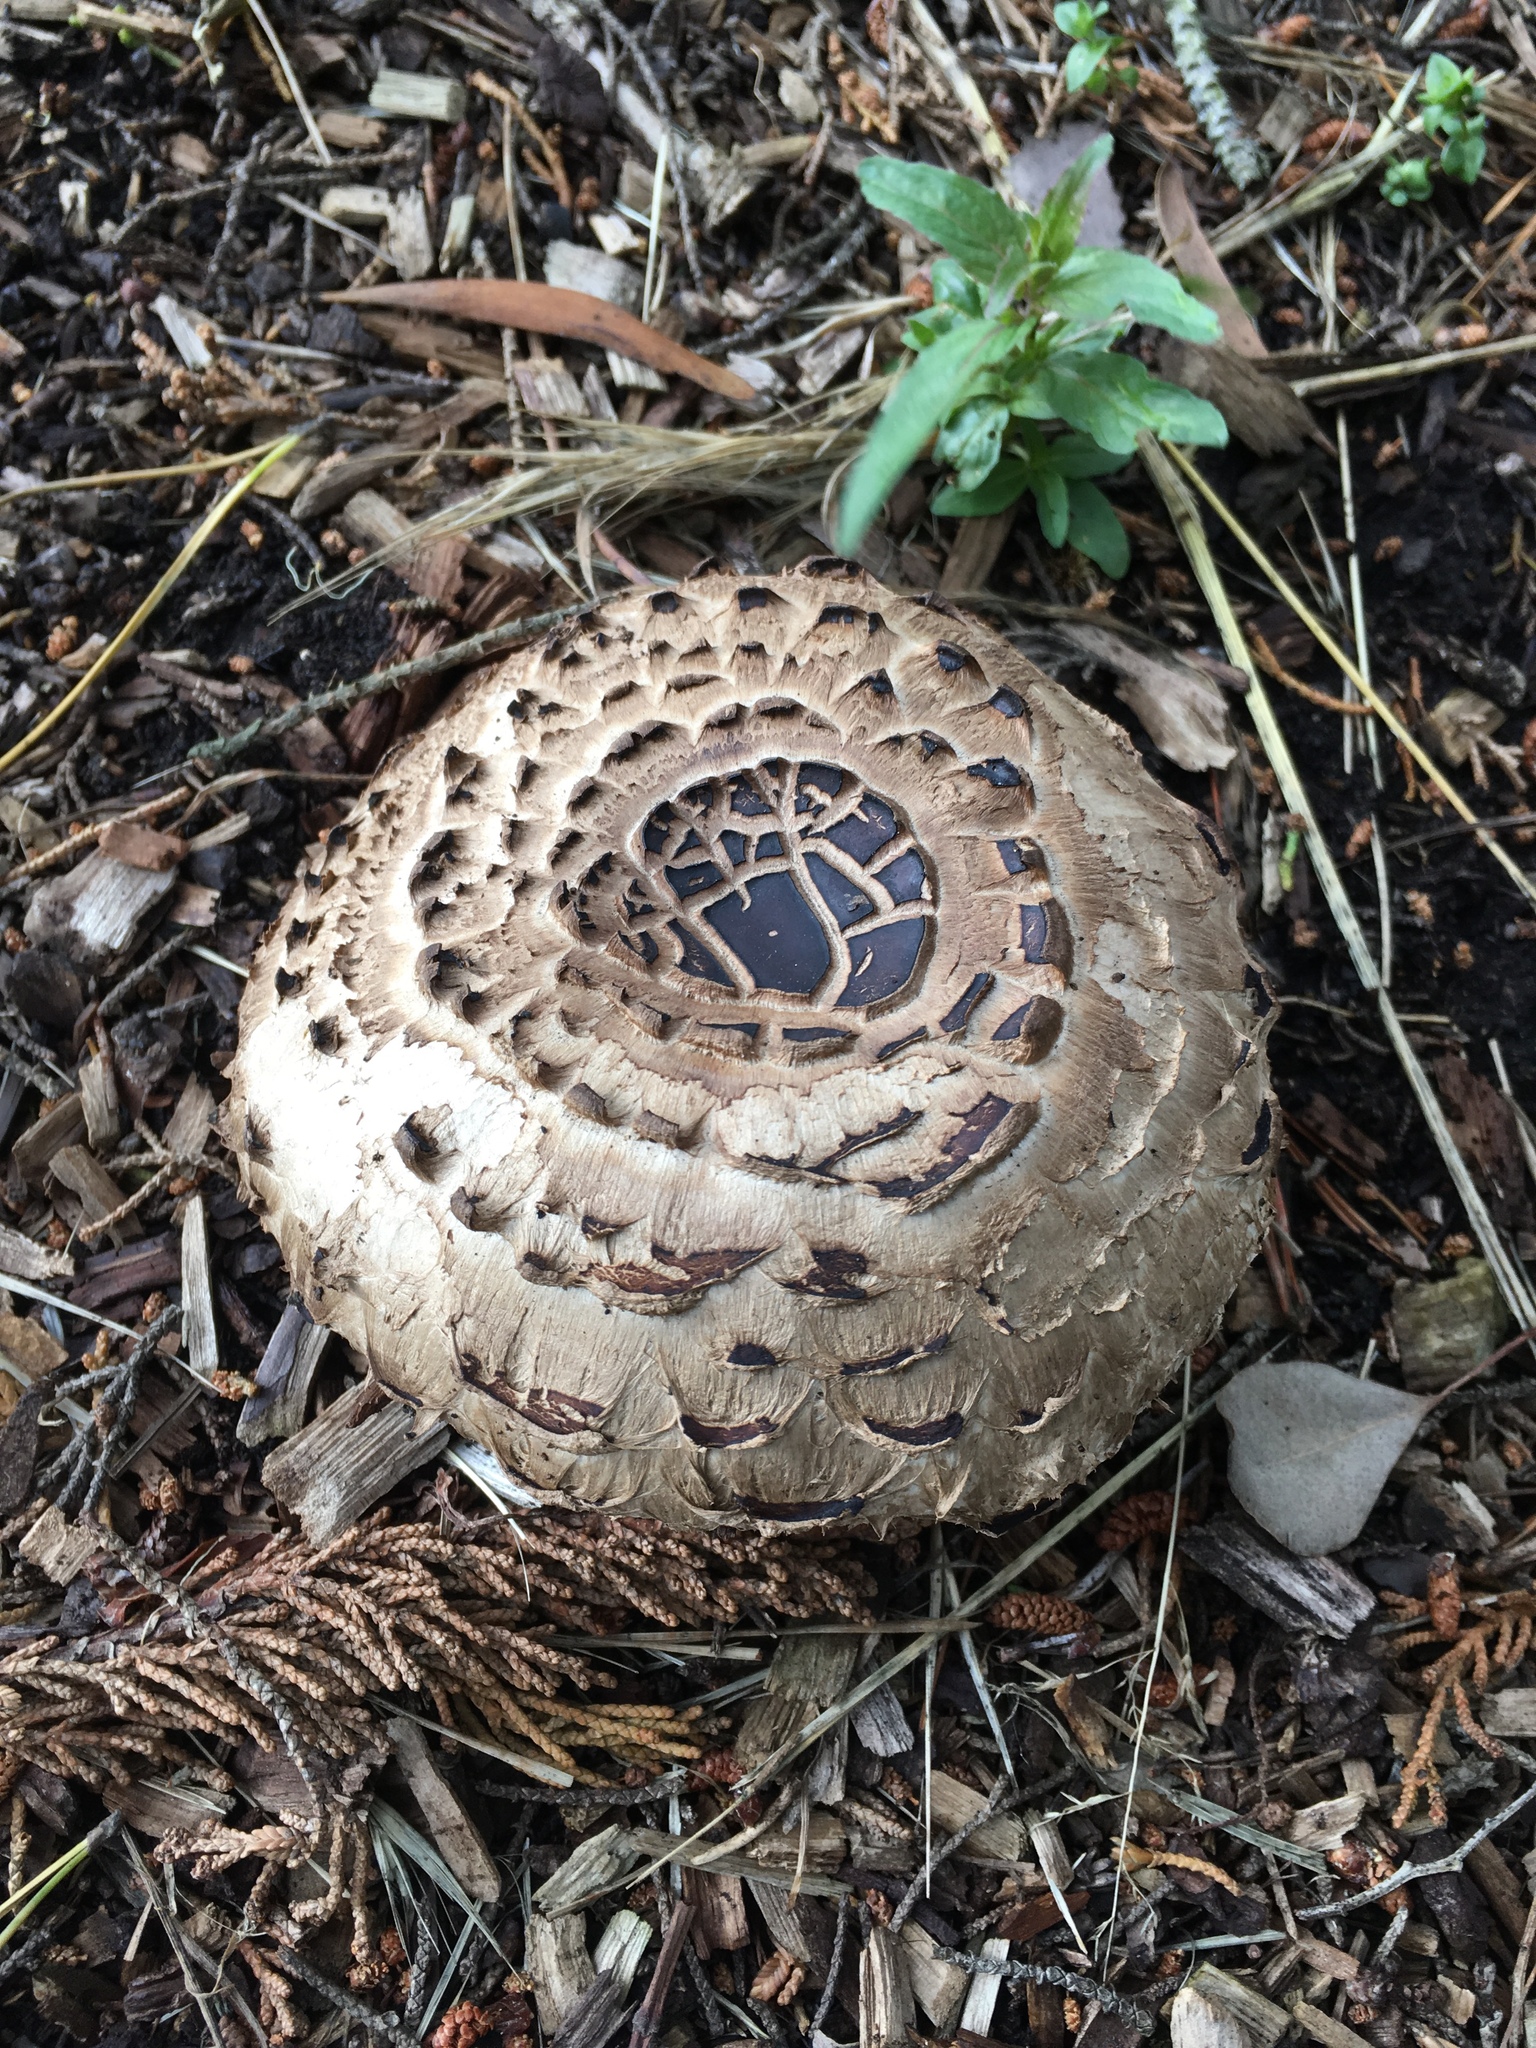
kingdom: Fungi
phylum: Basidiomycota
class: Agaricomycetes
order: Agaricales
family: Agaricaceae
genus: Chlorophyllum
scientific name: Chlorophyllum brunneum
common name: Brown parasol
